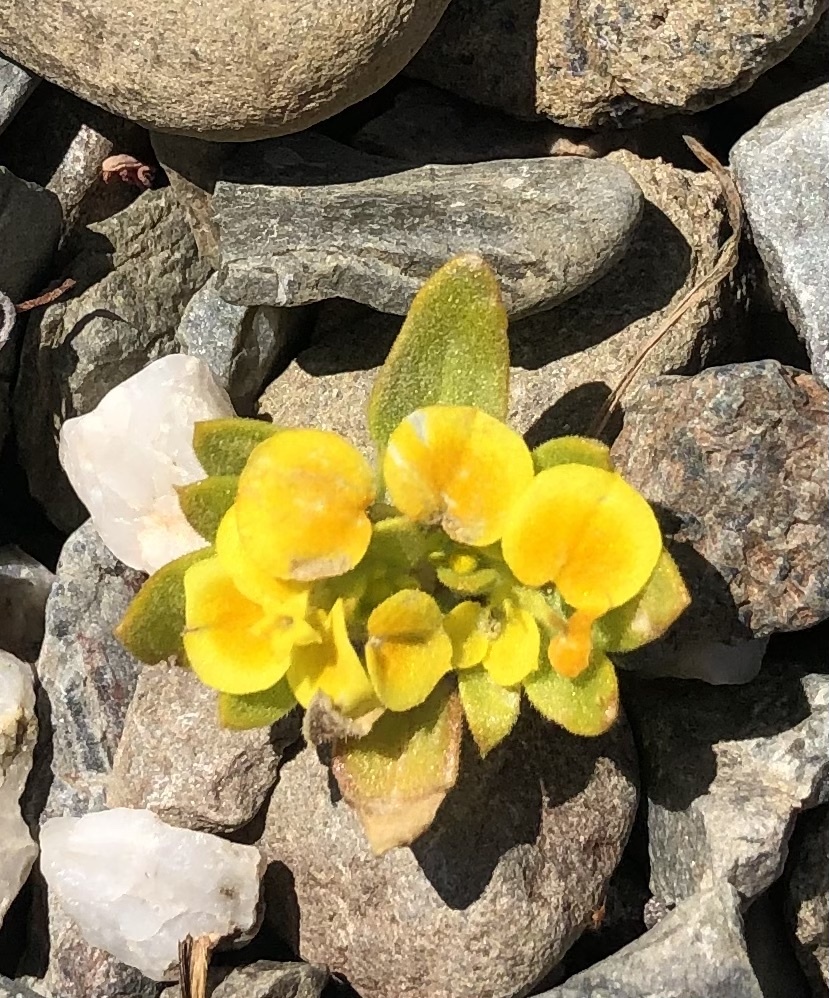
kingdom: Plantae
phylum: Tracheophyta
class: Magnoliopsida
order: Gentianales
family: Rubiaceae
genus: Cruckshanksia
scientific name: Cruckshanksia pumila
